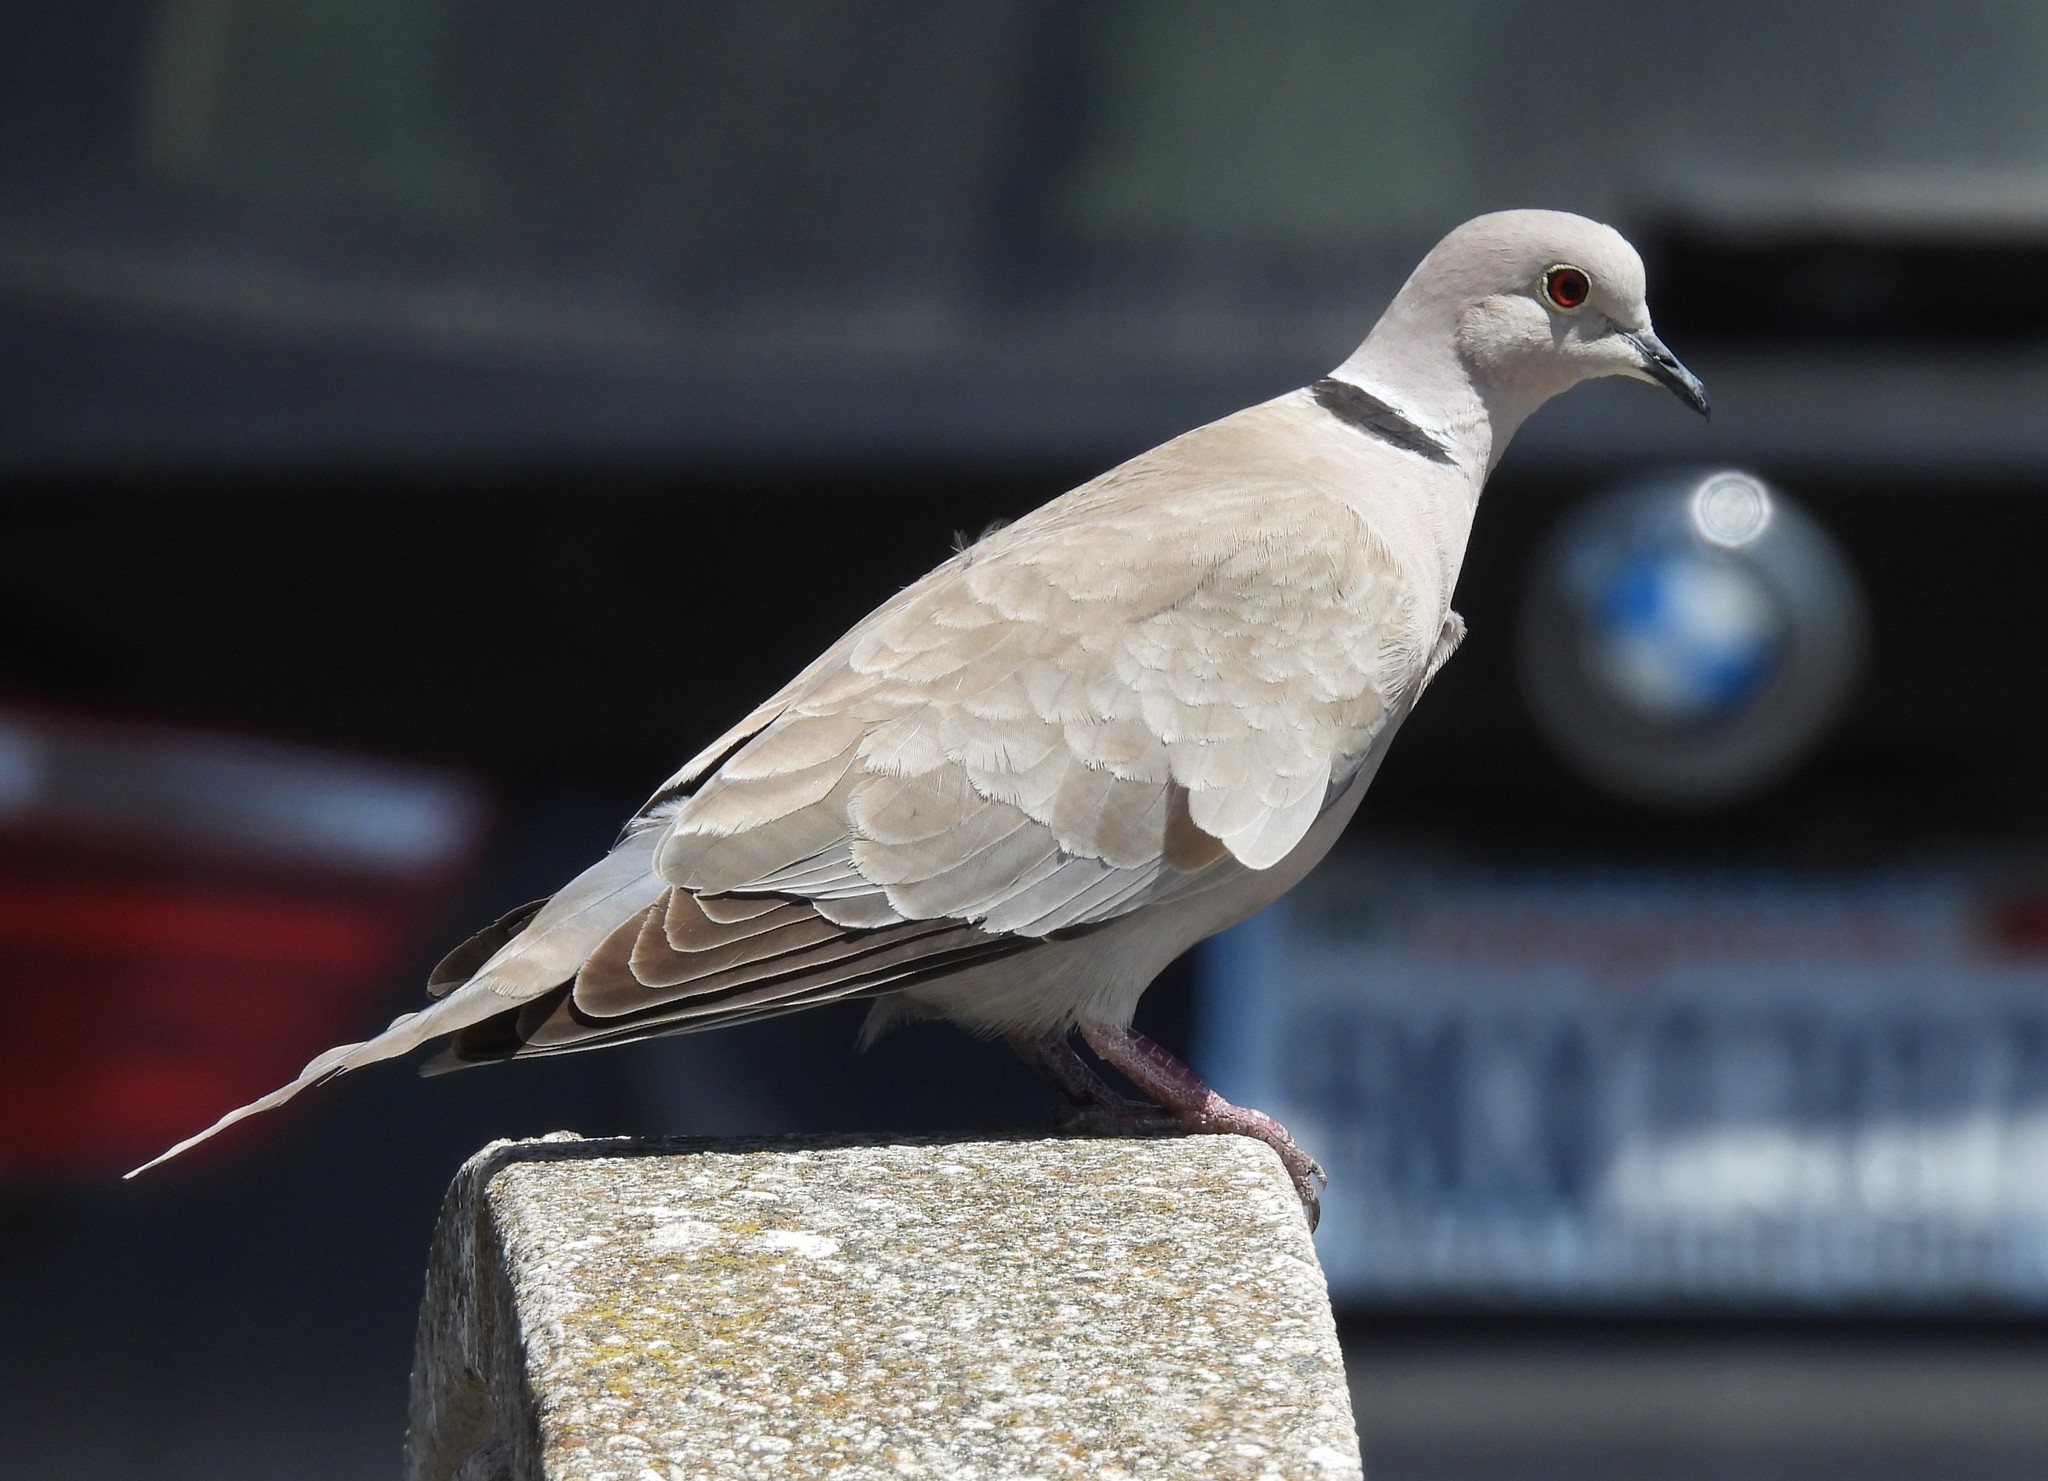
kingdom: Animalia
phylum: Chordata
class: Aves
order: Columbiformes
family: Columbidae
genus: Streptopelia
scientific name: Streptopelia decaocto
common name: Eurasian collared dove
